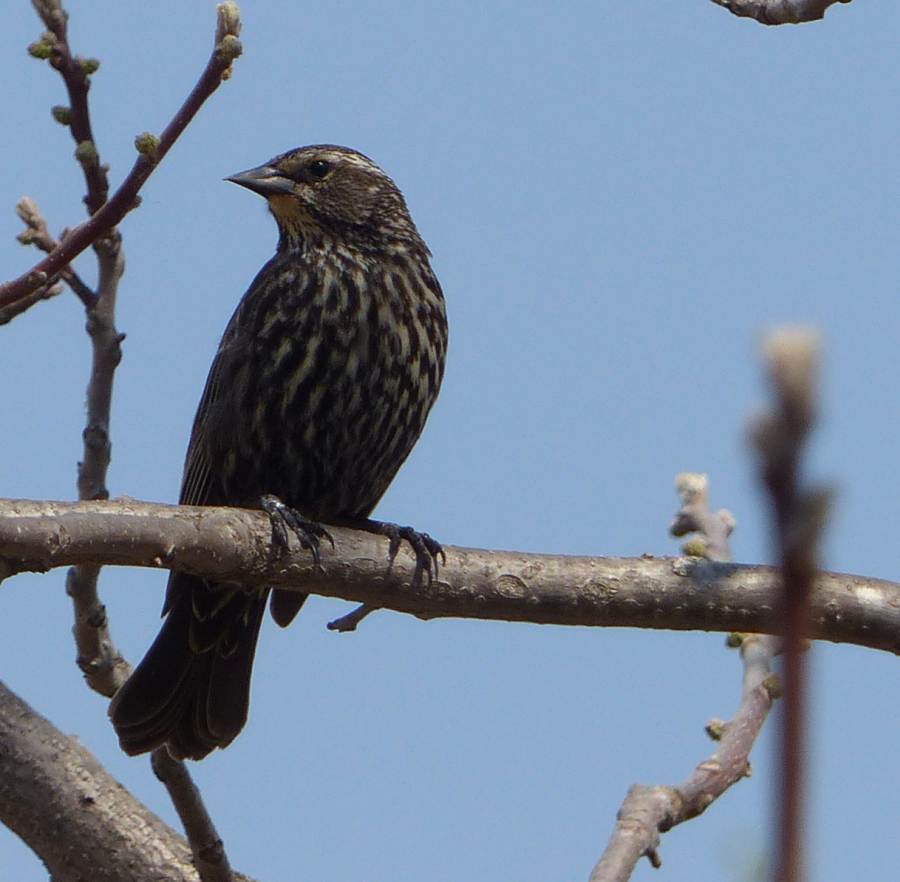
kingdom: Animalia
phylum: Chordata
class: Aves
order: Passeriformes
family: Icteridae
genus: Agelaius
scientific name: Agelaius phoeniceus
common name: Red-winged blackbird
